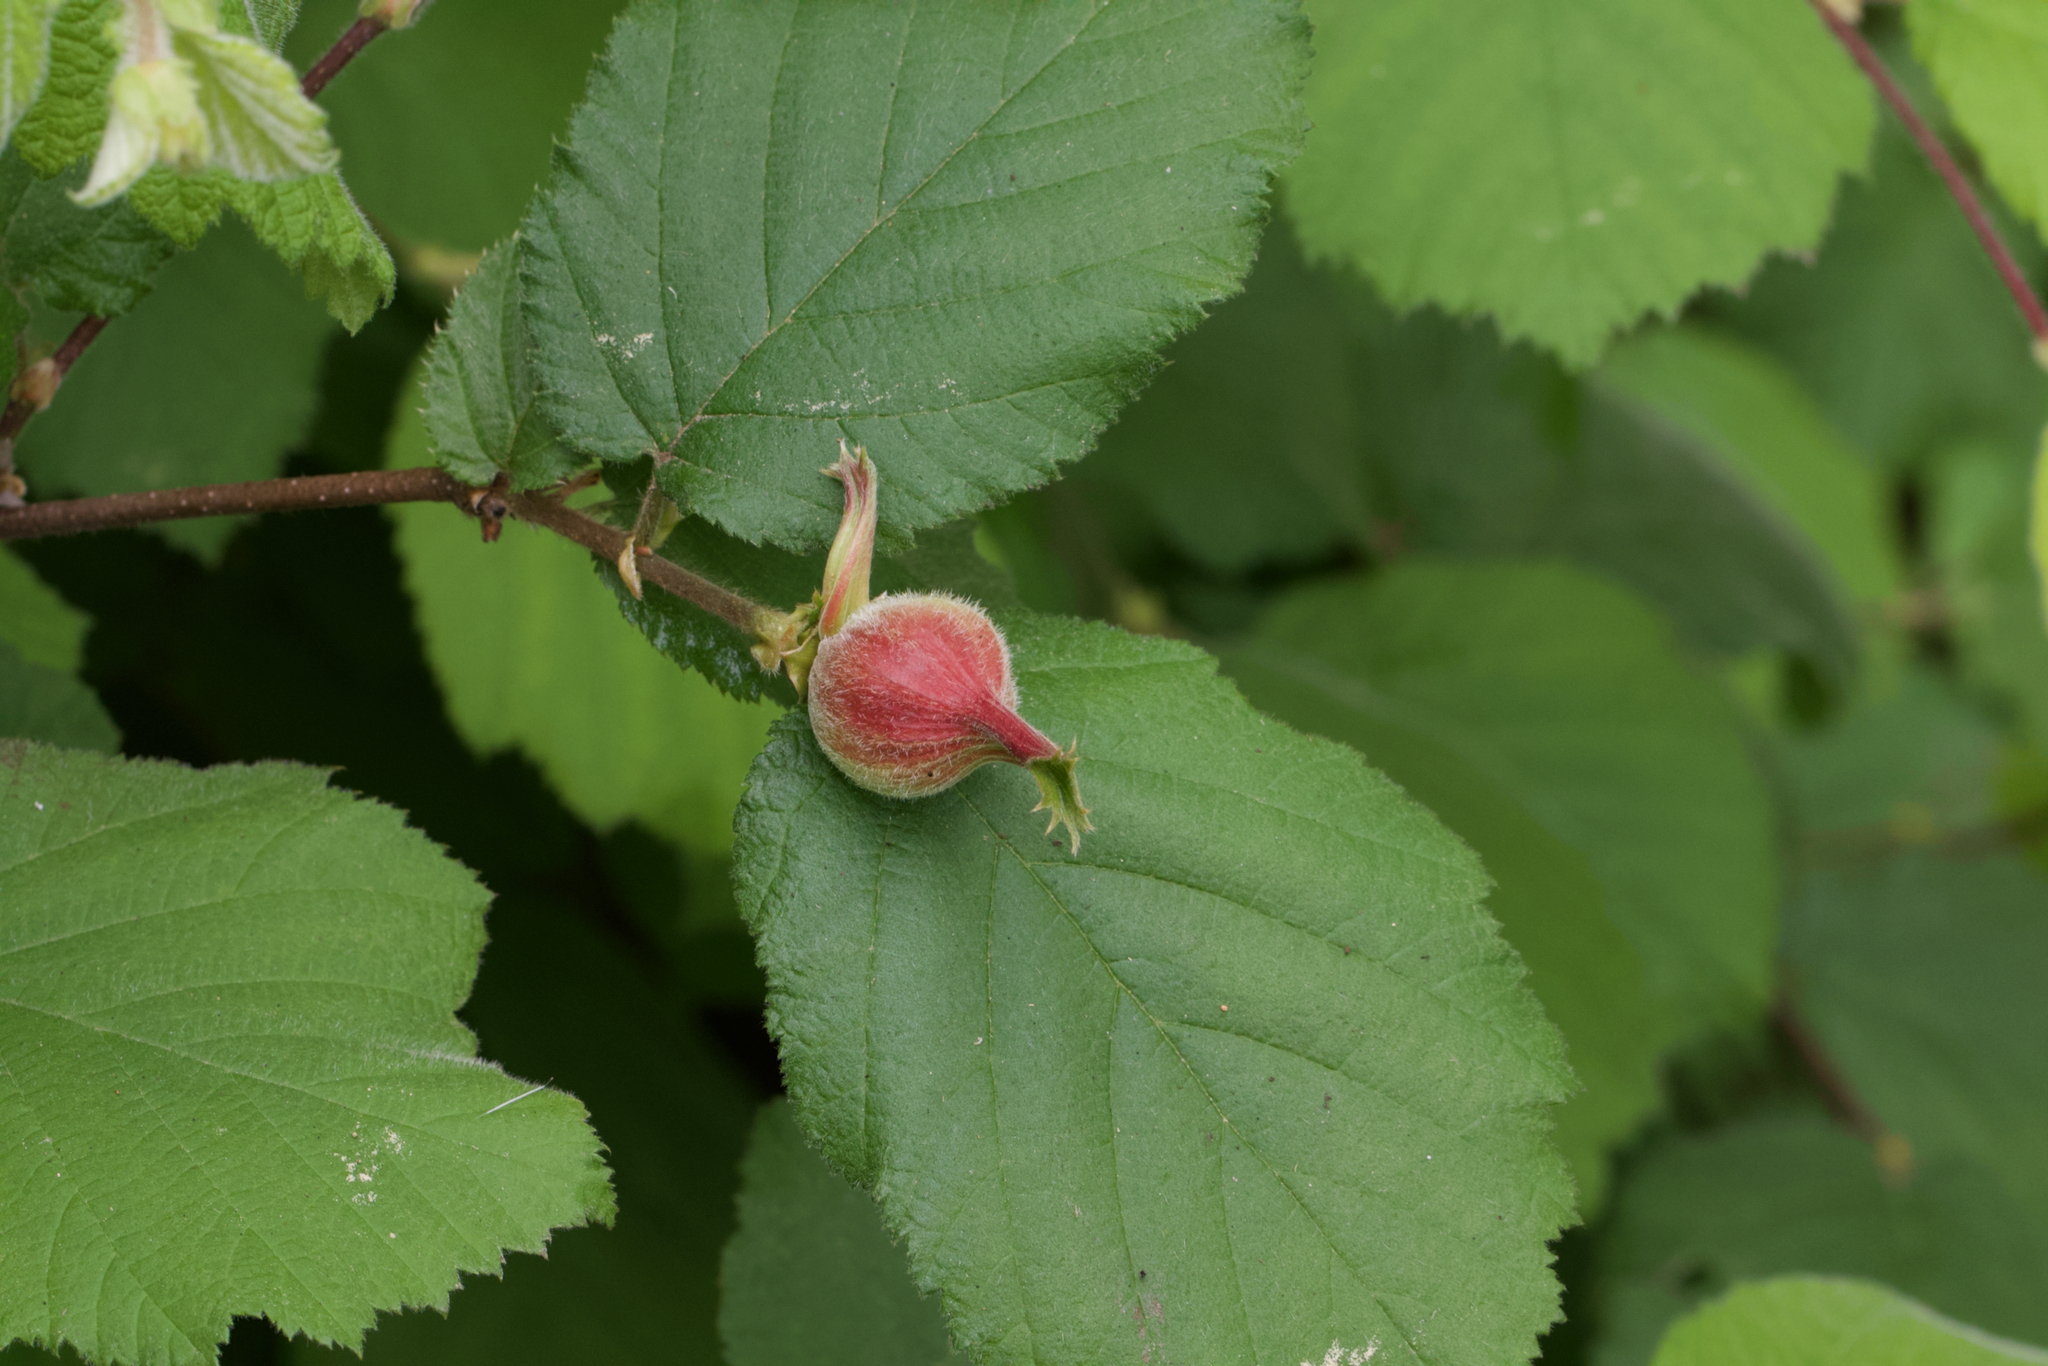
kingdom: Plantae
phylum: Tracheophyta
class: Magnoliopsida
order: Fagales
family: Betulaceae
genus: Corylus
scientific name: Corylus cornuta
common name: Beaked hazel
